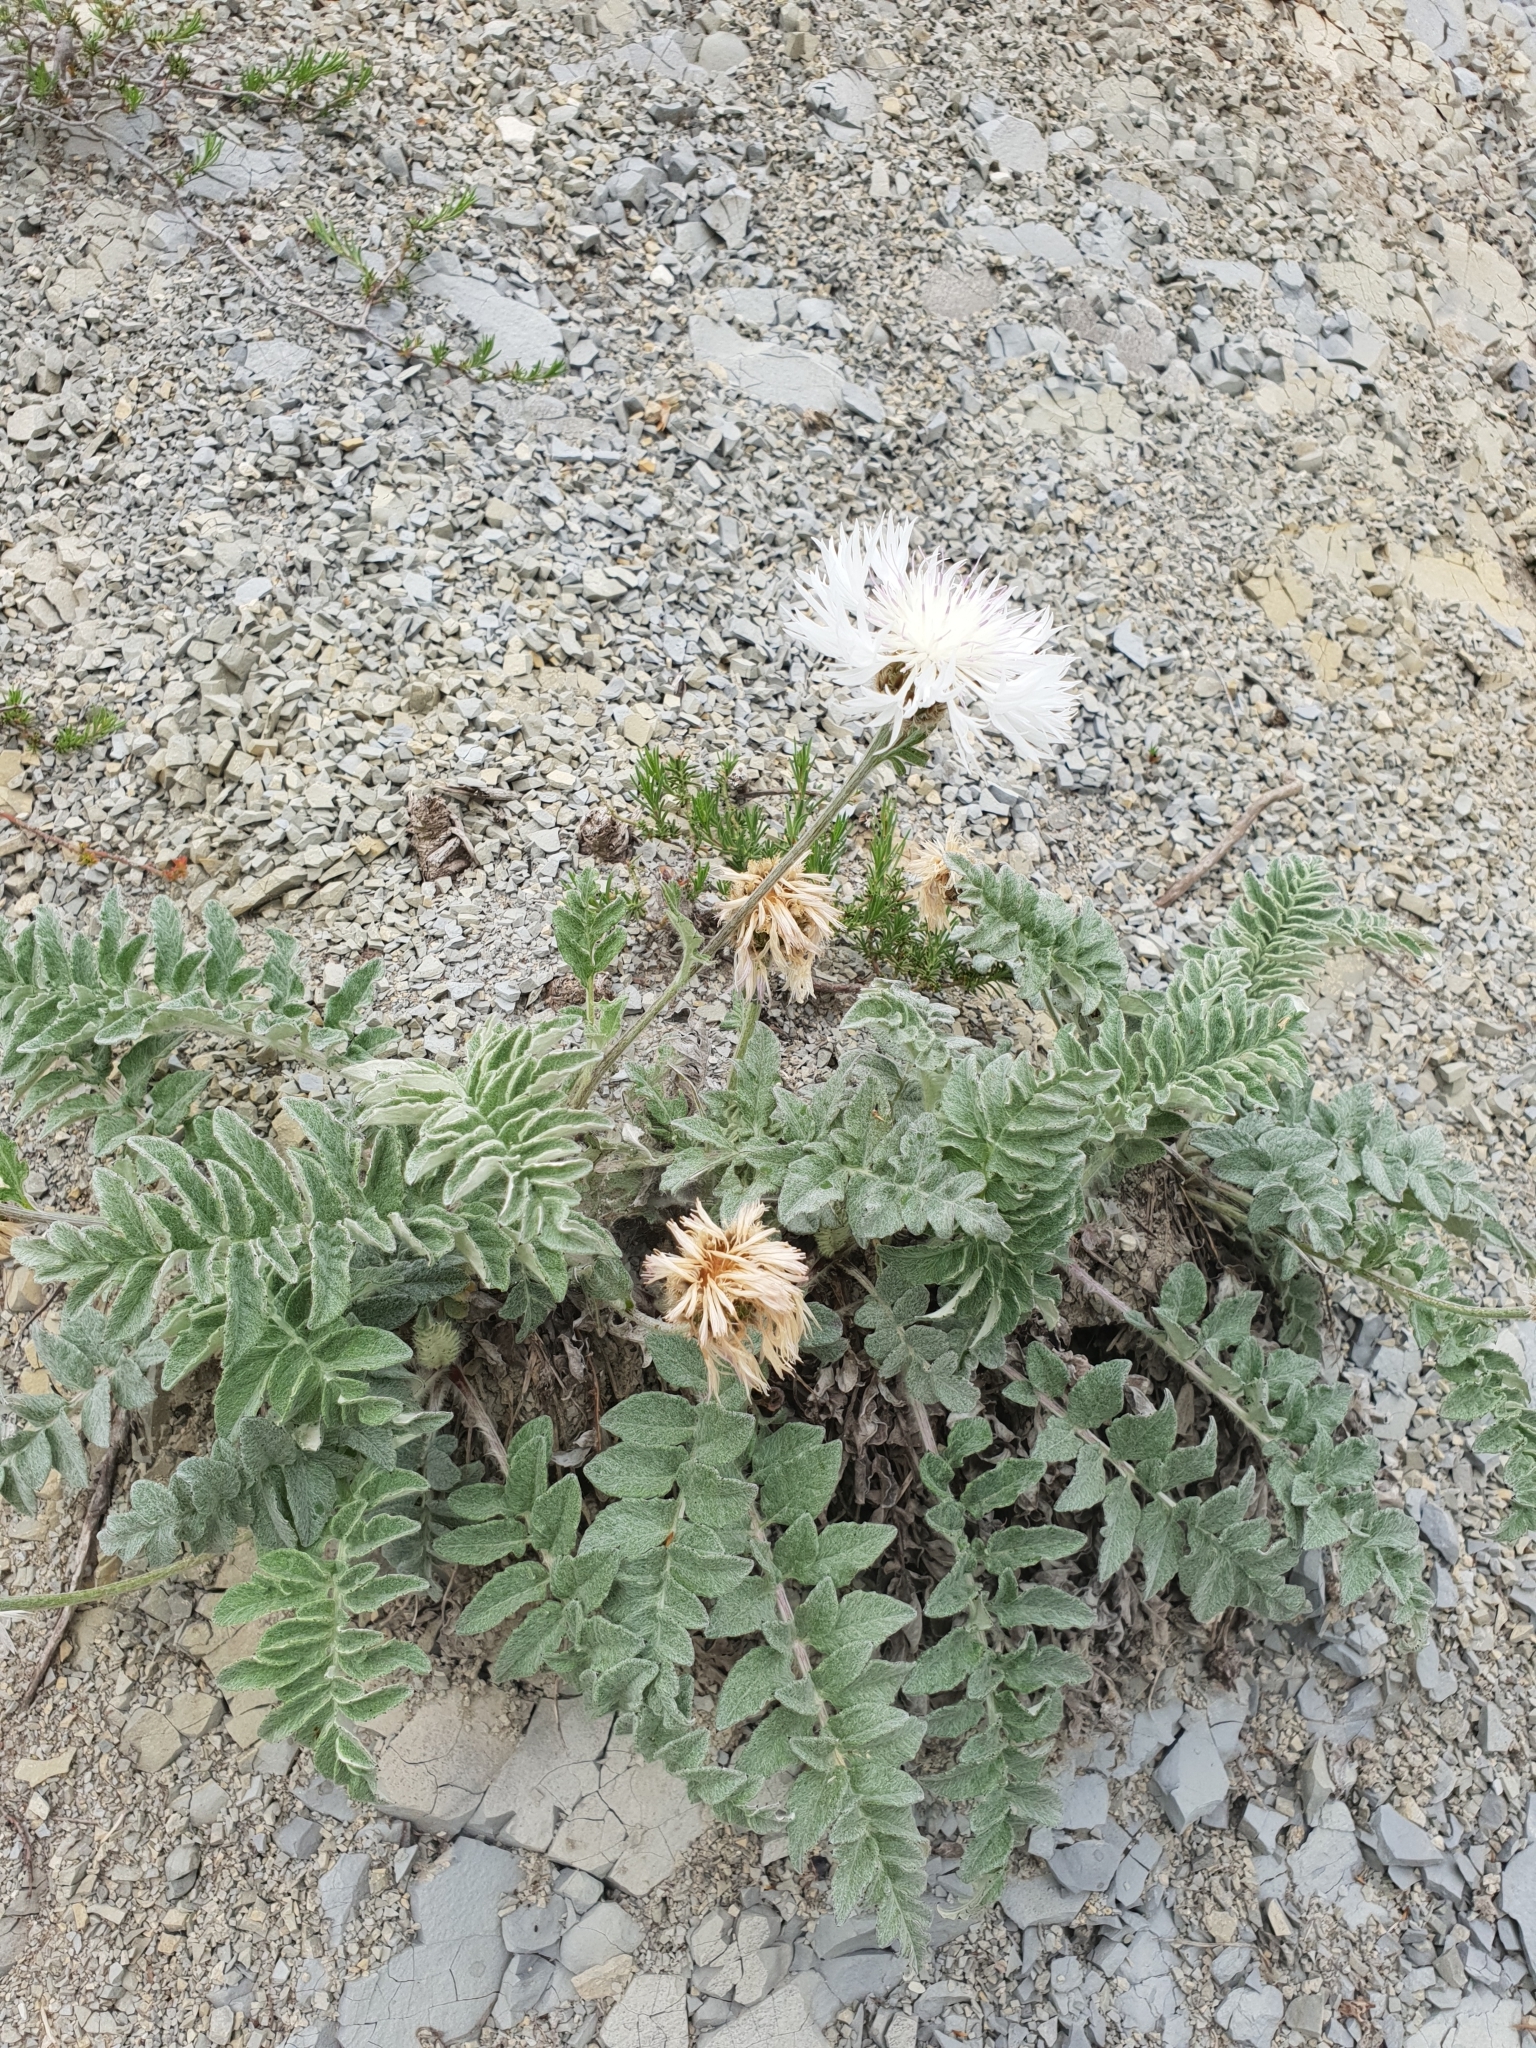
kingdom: Plantae
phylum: Tracheophyta
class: Magnoliopsida
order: Asterales
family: Asteraceae
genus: Psephellus
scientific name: Psephellus declinatus
